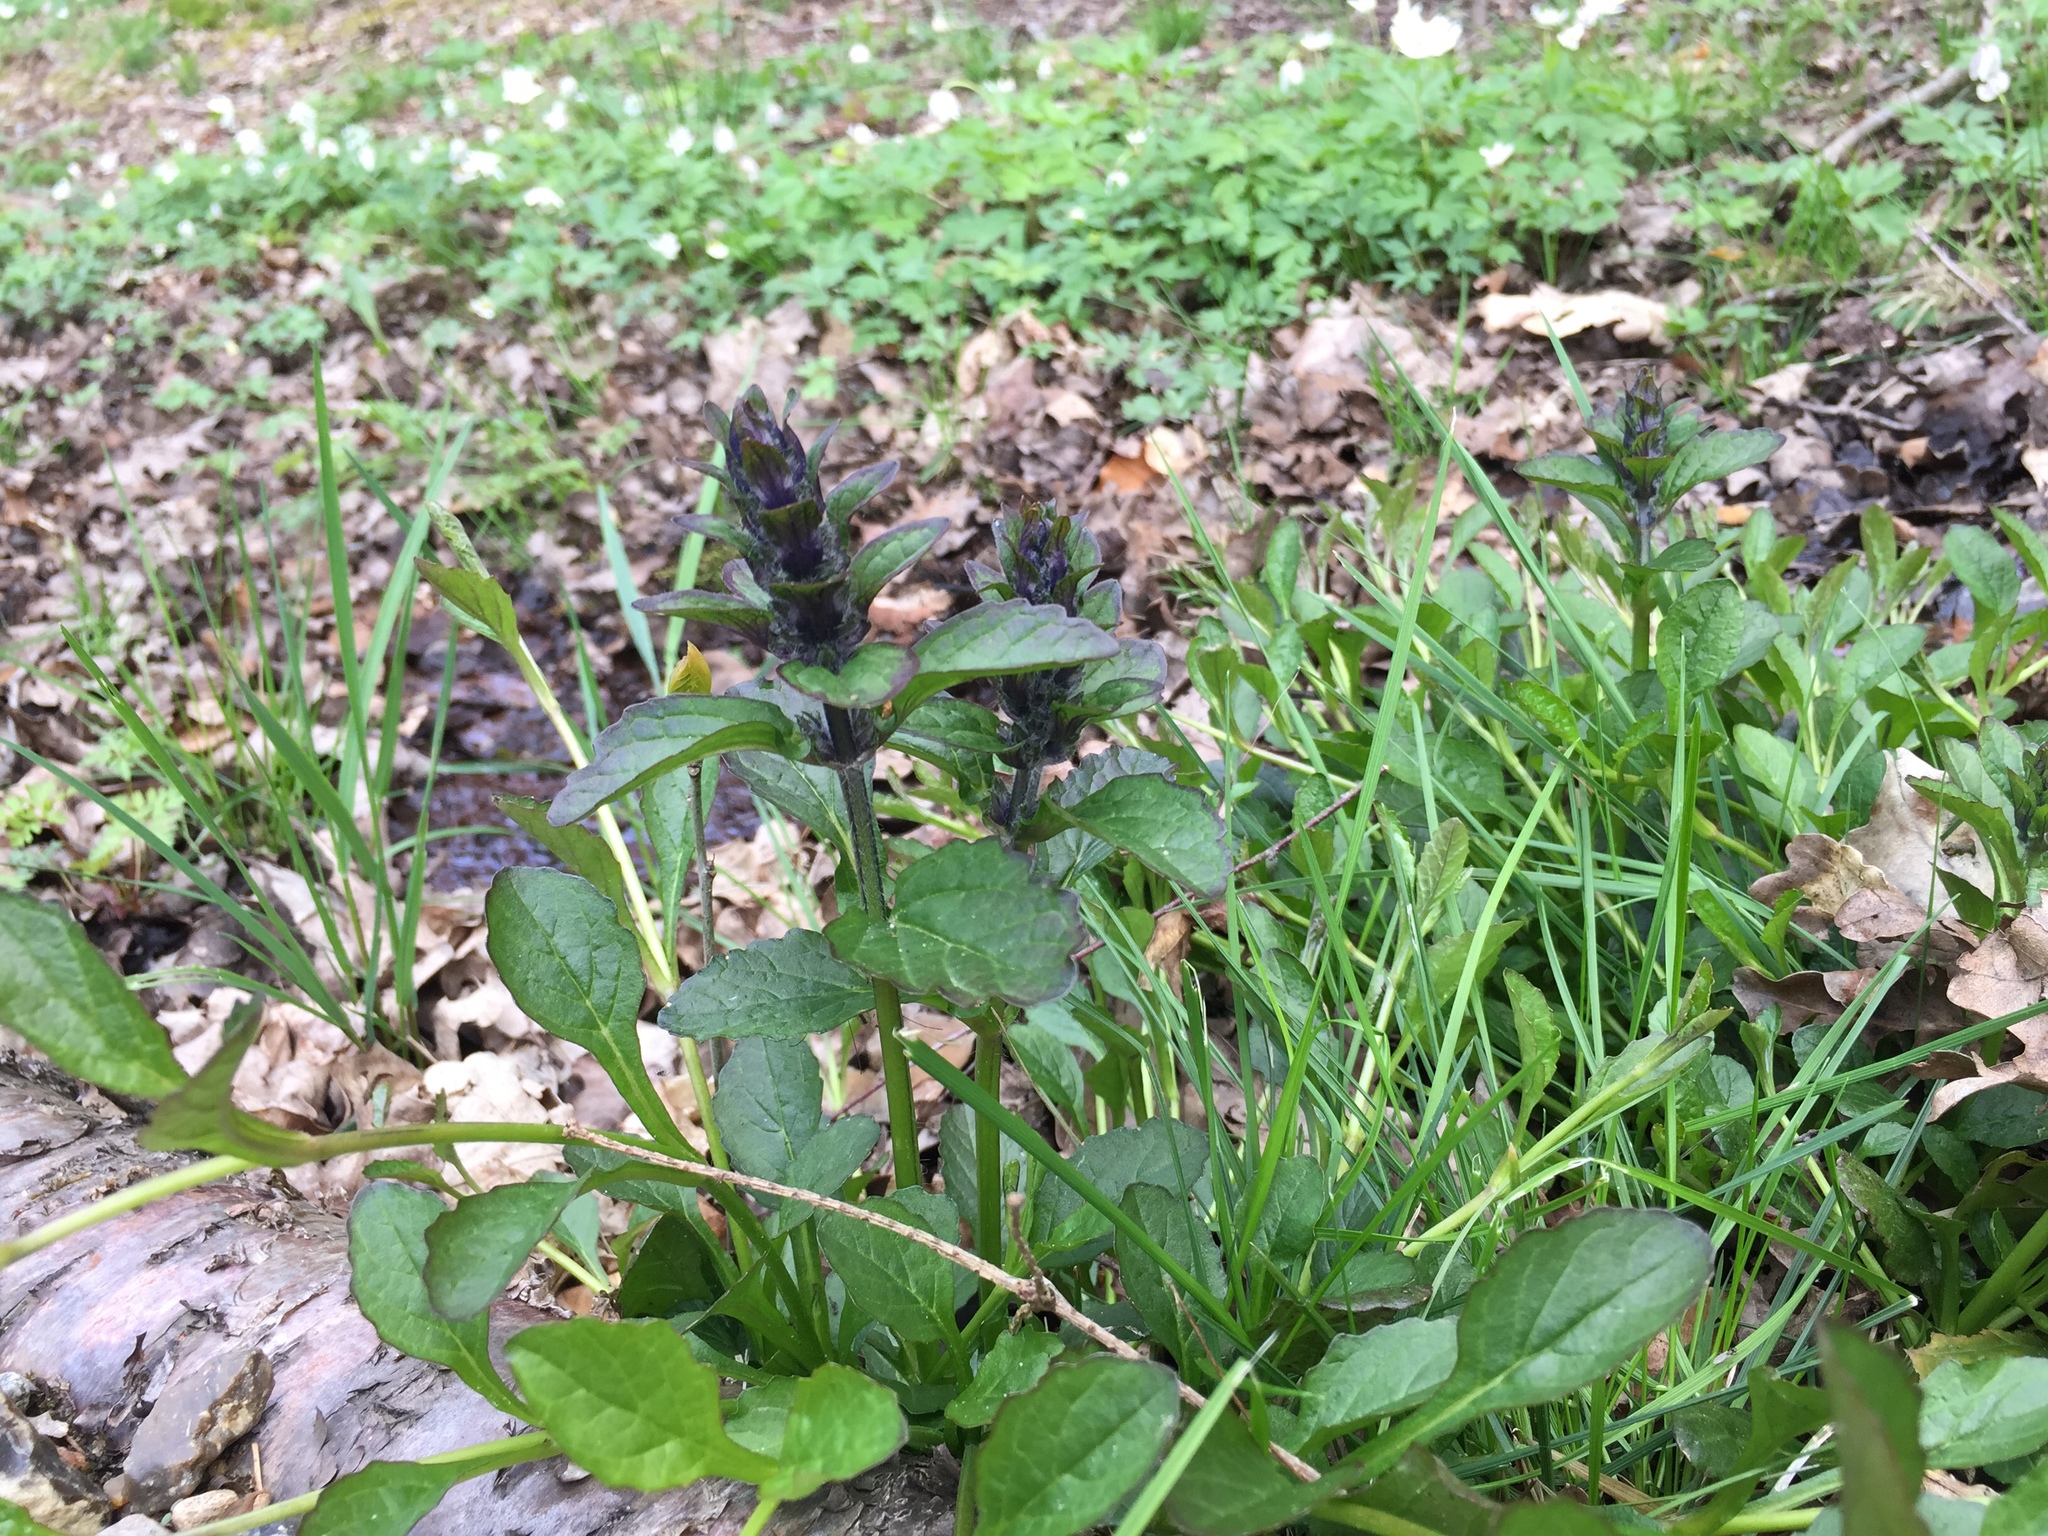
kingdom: Plantae
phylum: Tracheophyta
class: Magnoliopsida
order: Lamiales
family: Lamiaceae
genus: Ajuga
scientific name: Ajuga reptans
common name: Bugle
